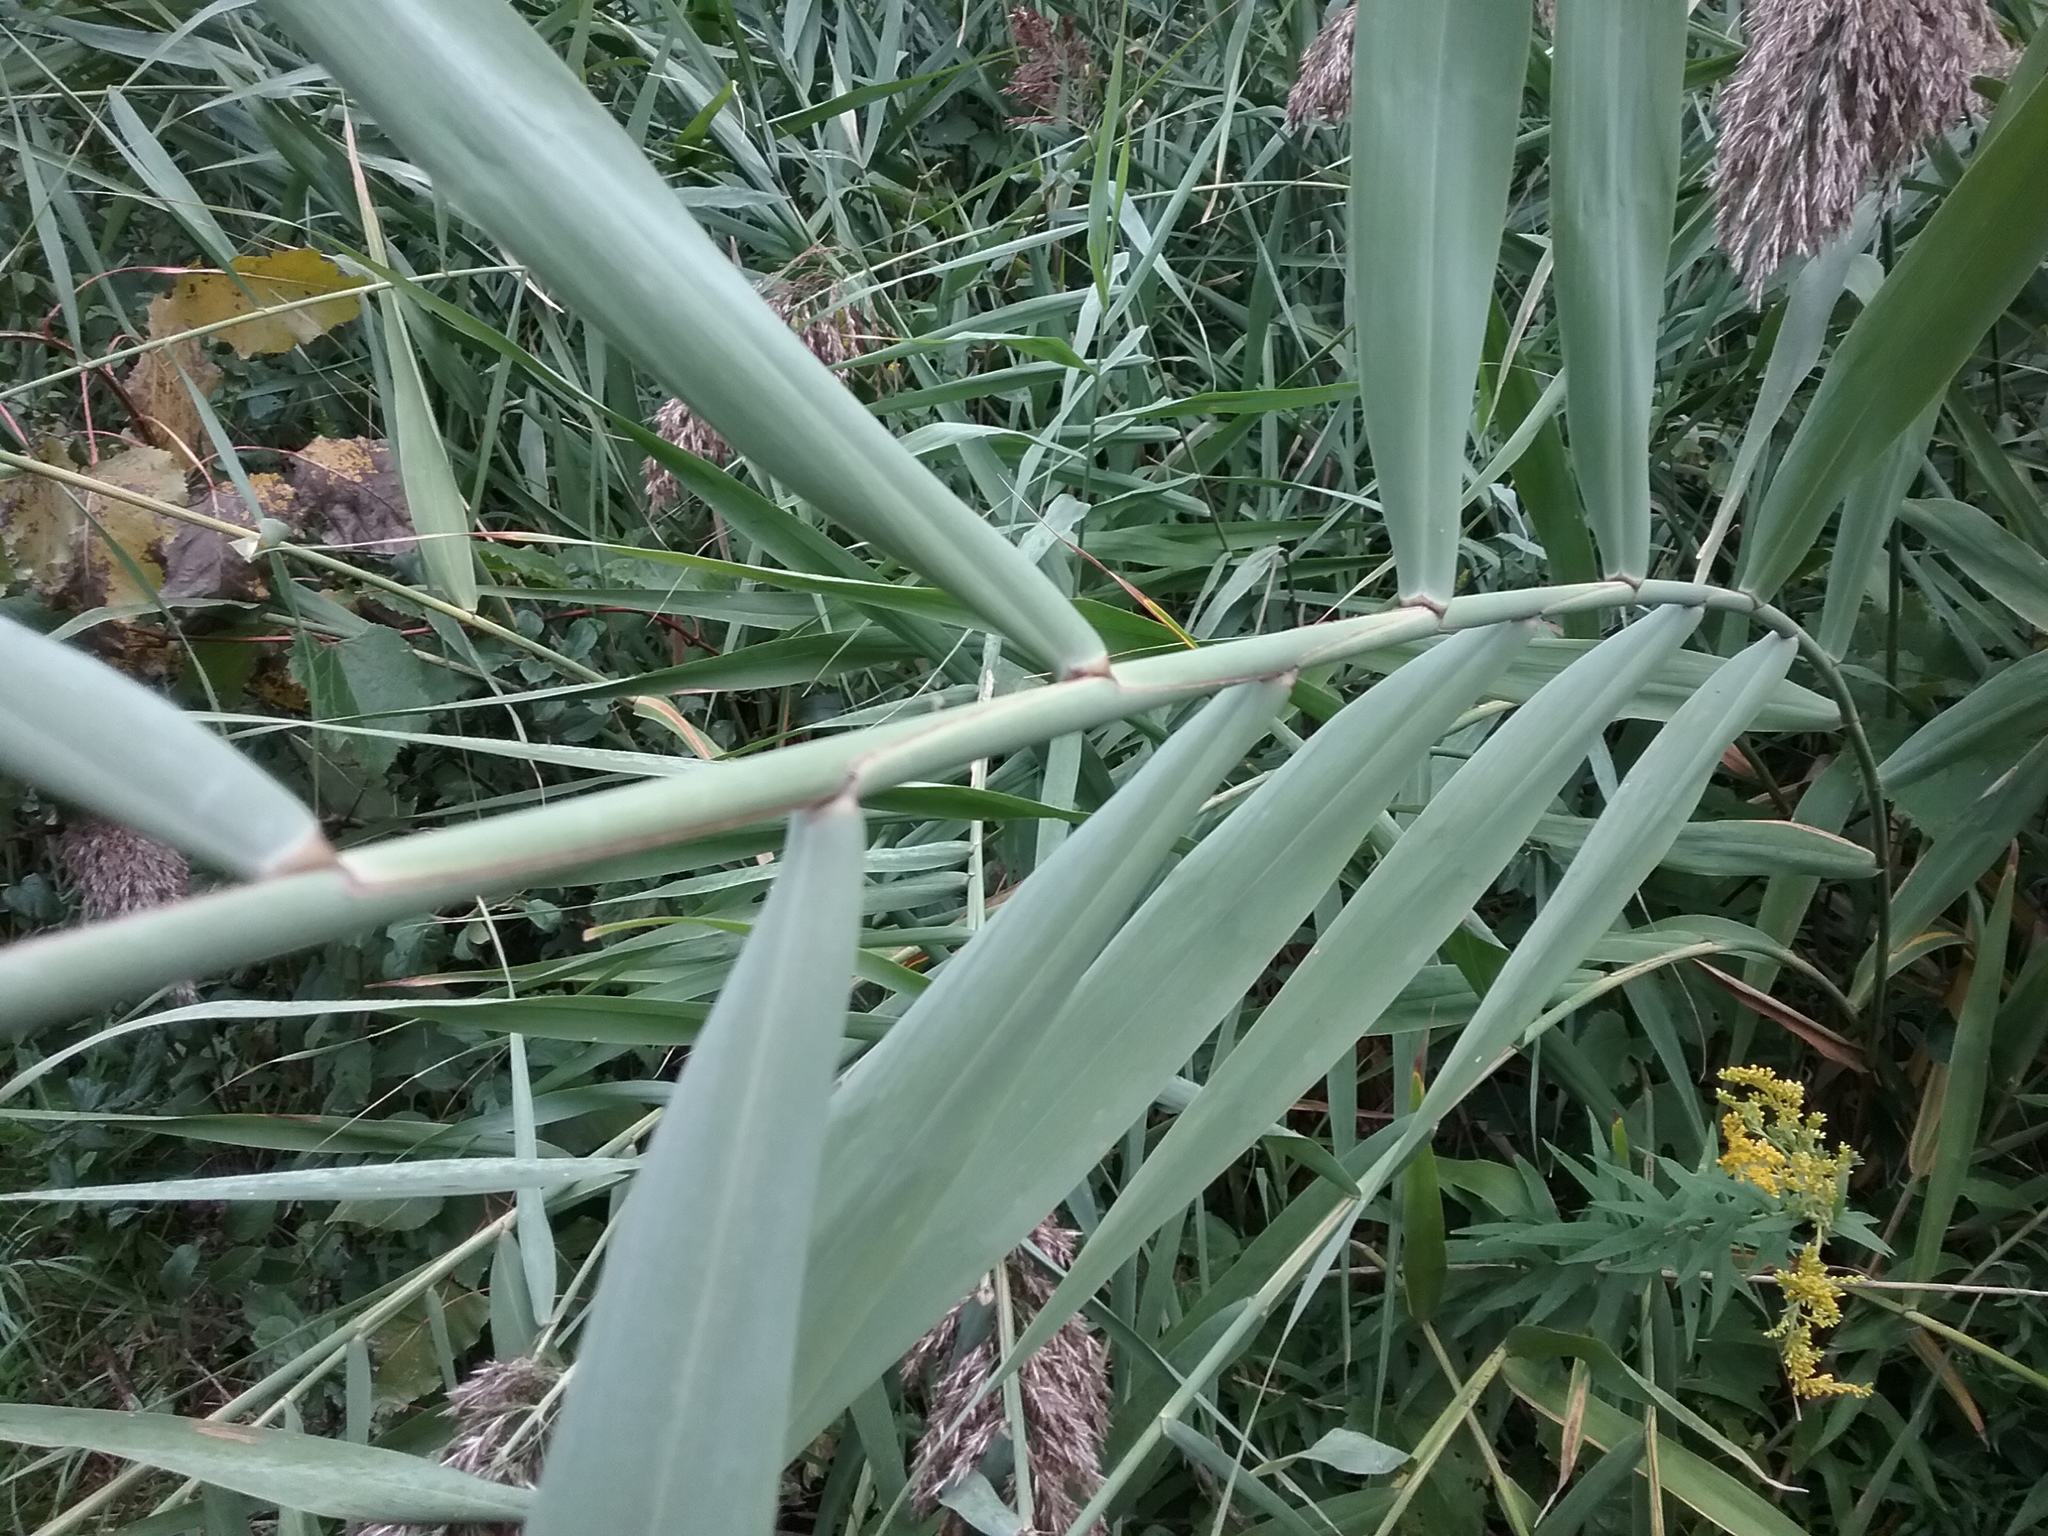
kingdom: Plantae
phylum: Tracheophyta
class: Liliopsida
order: Poales
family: Poaceae
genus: Phragmites
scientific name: Phragmites australis
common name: Common reed
